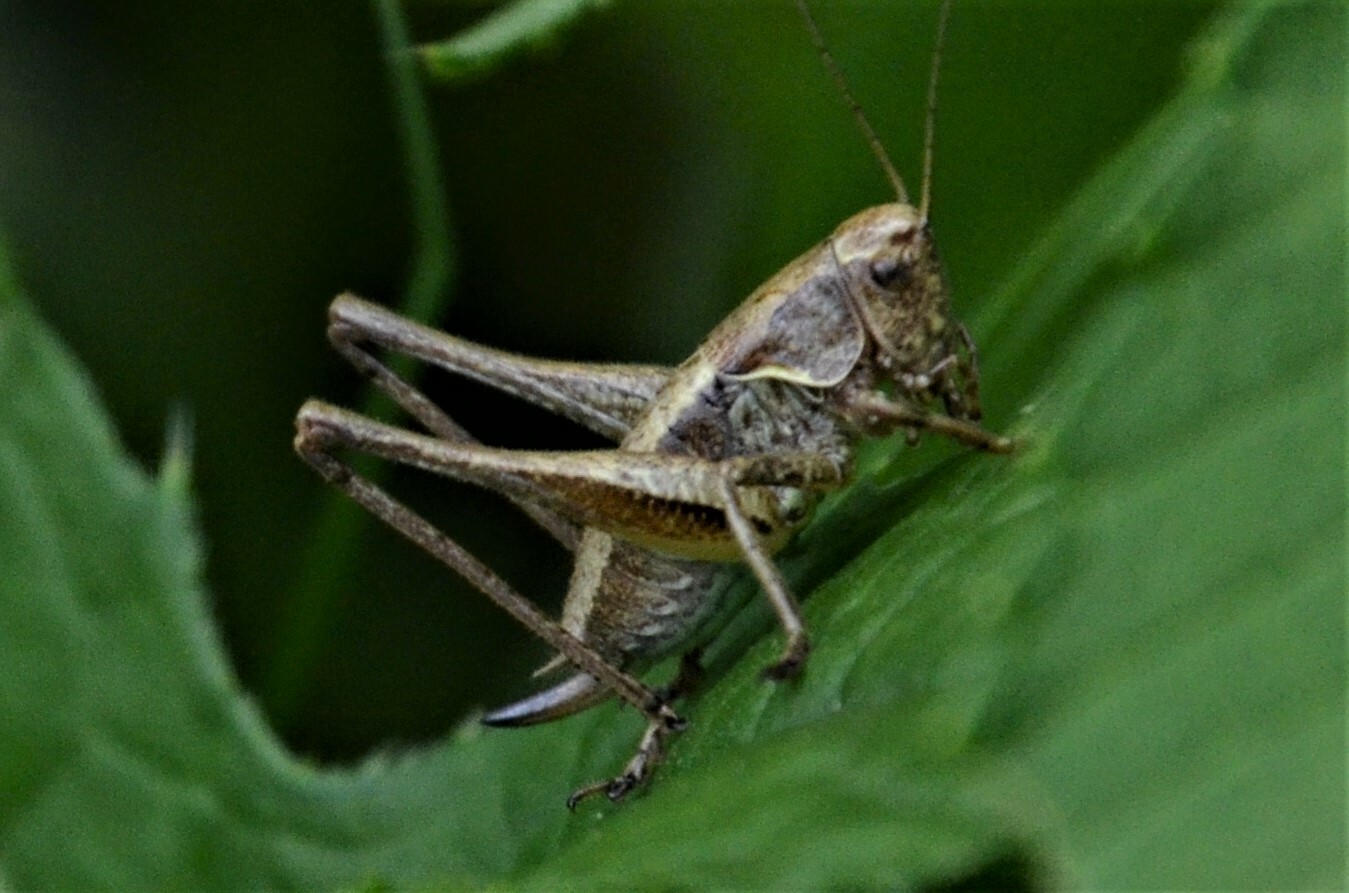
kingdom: Animalia
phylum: Arthropoda
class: Insecta
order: Orthoptera
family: Tettigoniidae
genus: Pholidoptera
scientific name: Pholidoptera griseoaptera
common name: Dark bush-cricket
